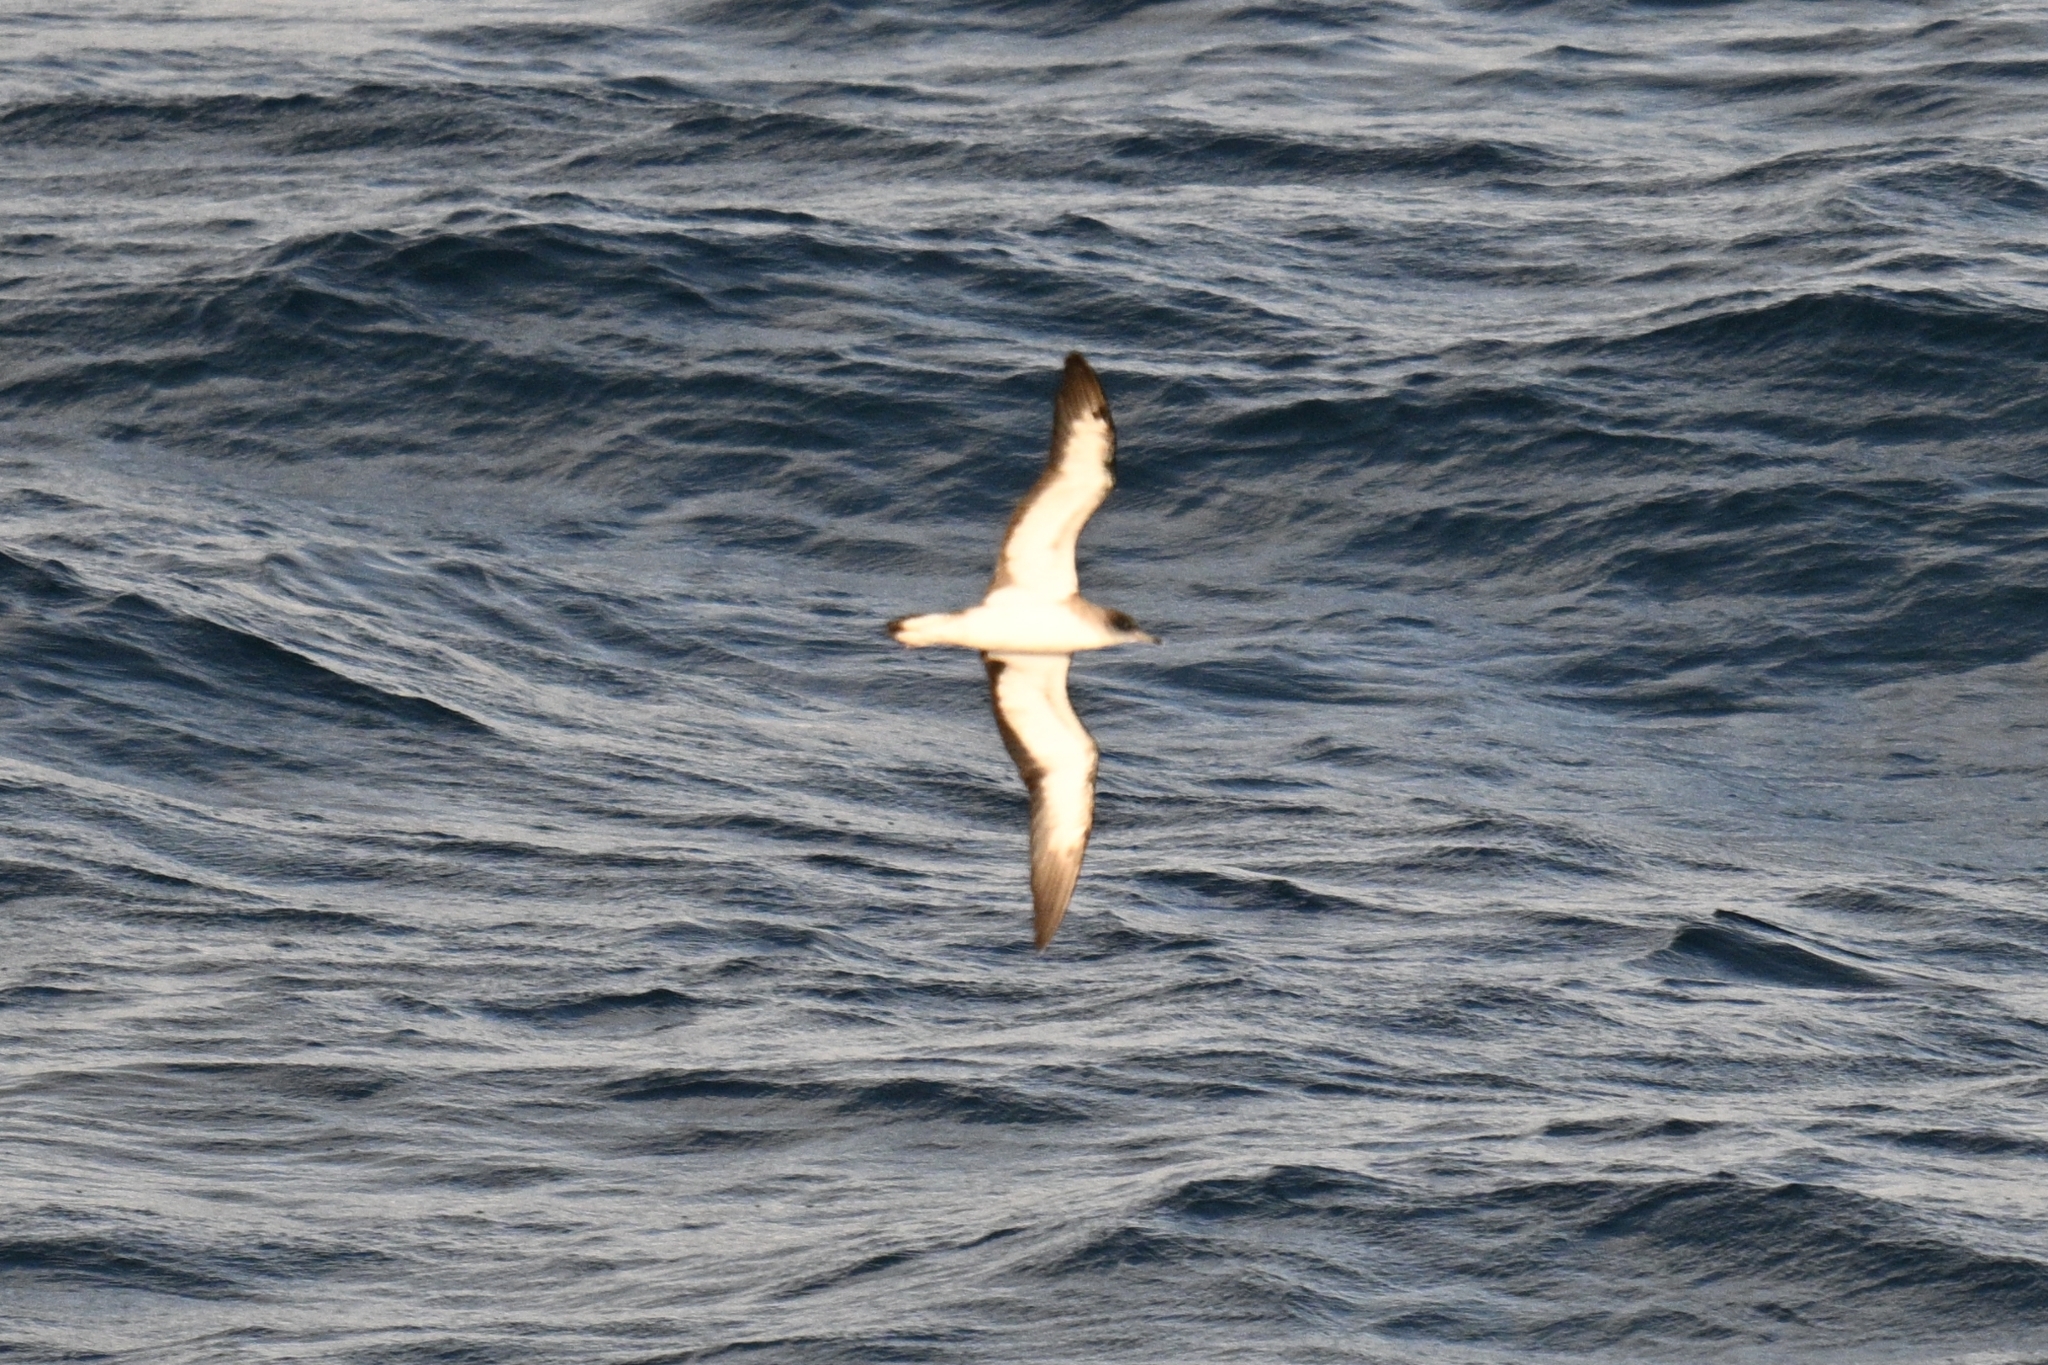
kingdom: Animalia
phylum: Chordata
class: Aves
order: Procellariiformes
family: Procellariidae
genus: Calonectris
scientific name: Calonectris edwardsii
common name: Cape verde shearwater
